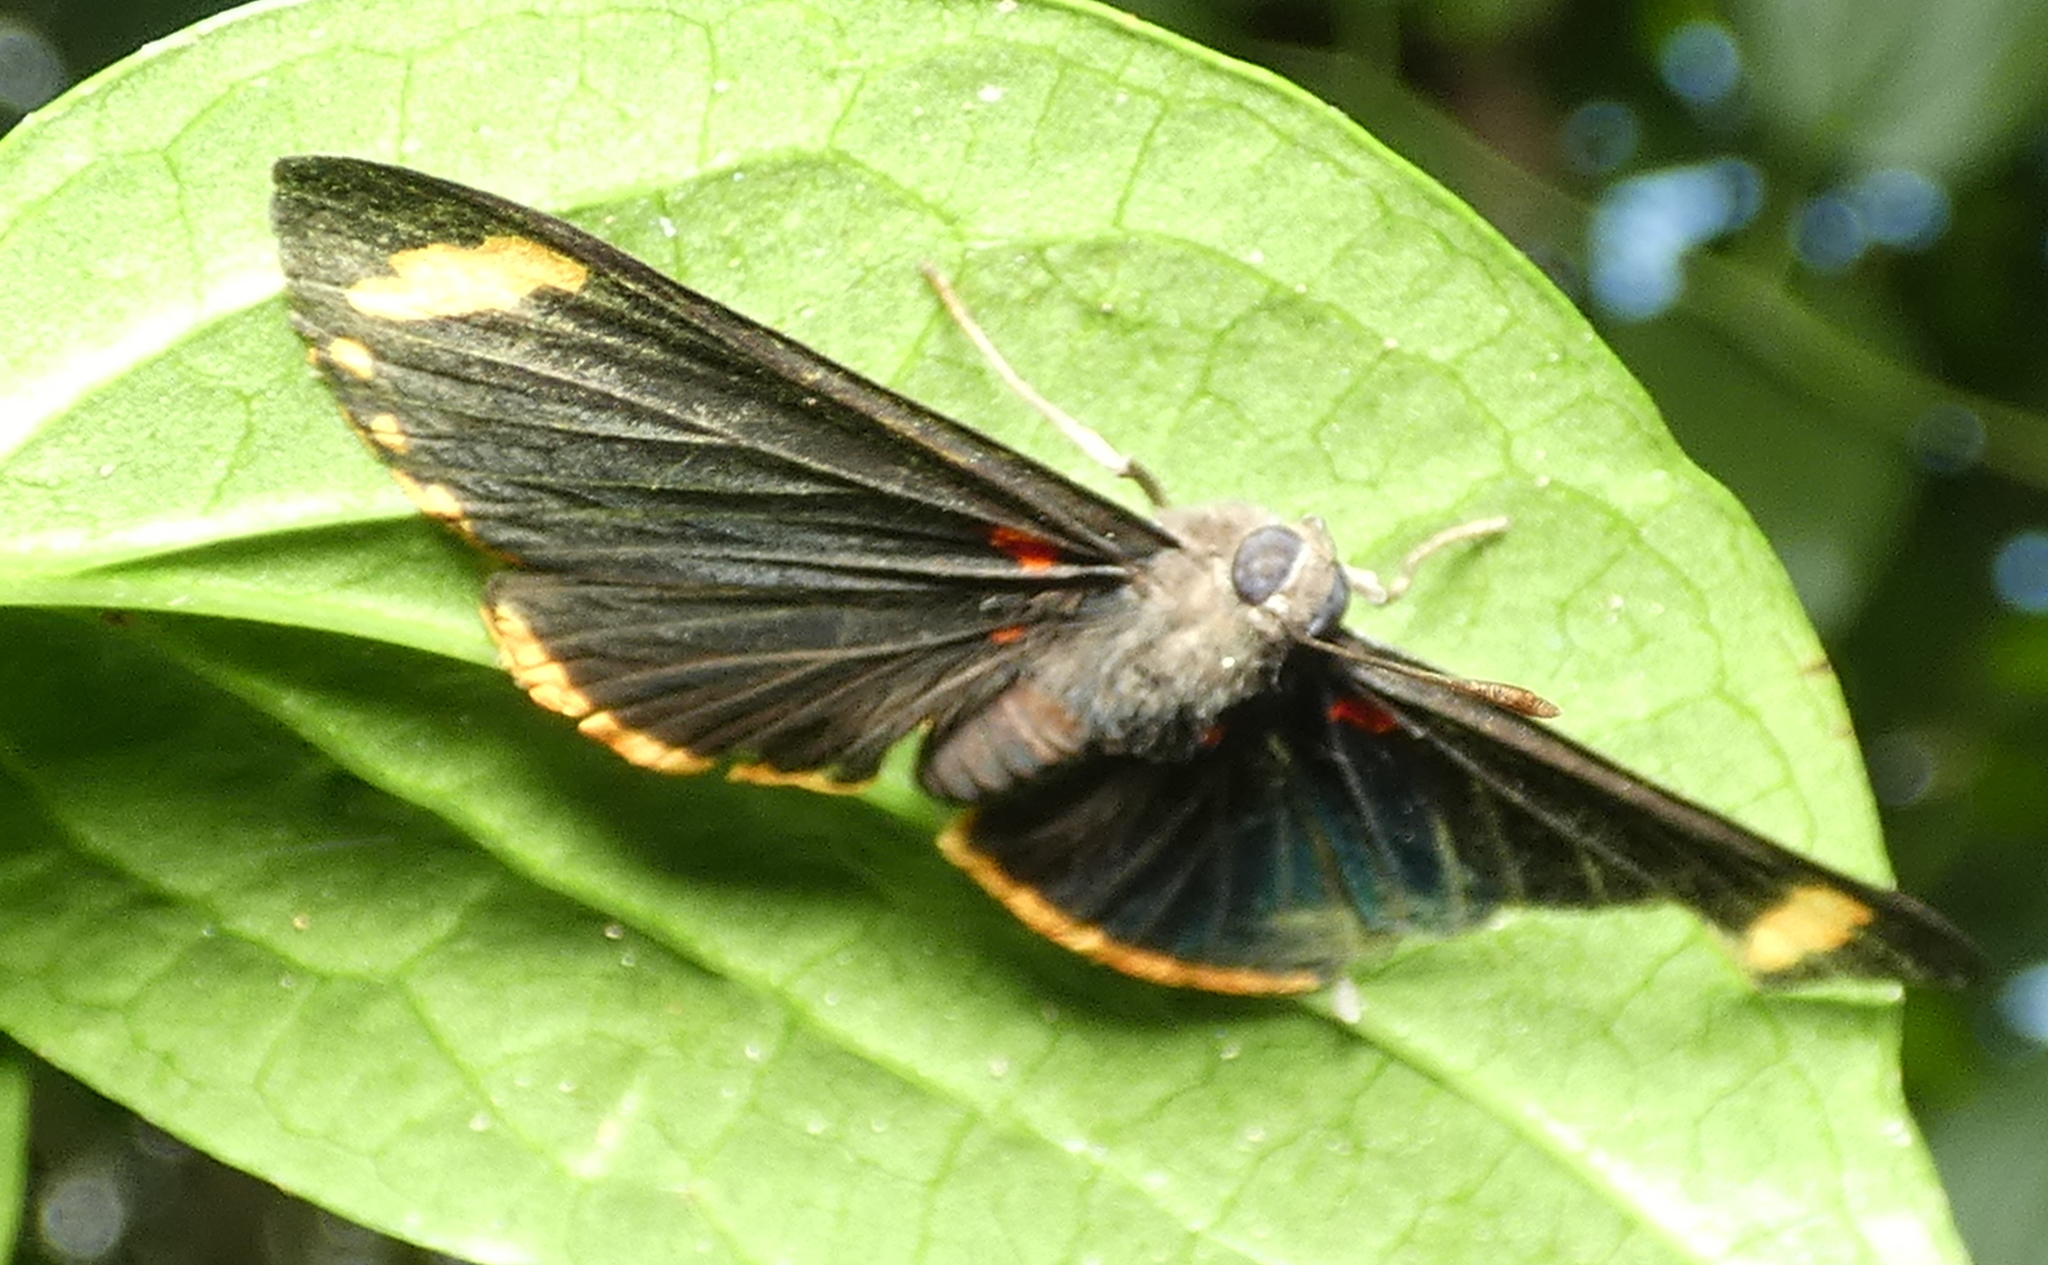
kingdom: Animalia
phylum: Arthropoda
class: Insecta
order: Lepidoptera
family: Lycaenidae
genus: Melanis
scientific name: Melanis xenia
